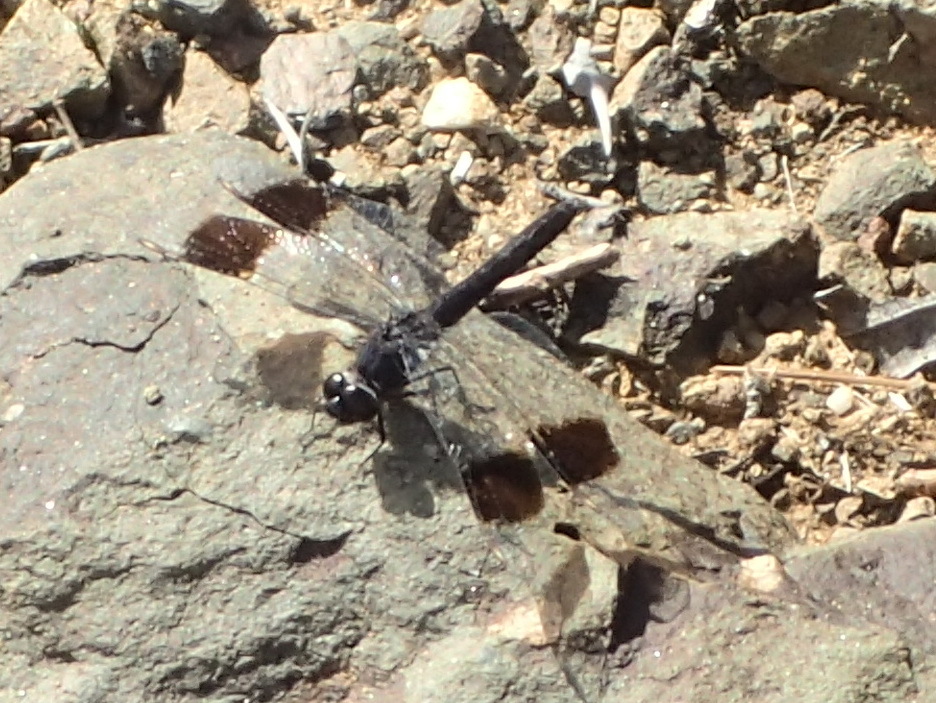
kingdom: Animalia
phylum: Arthropoda
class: Insecta
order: Odonata
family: Libellulidae
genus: Brachythemis
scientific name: Brachythemis leucosticta
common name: Banded groundling
